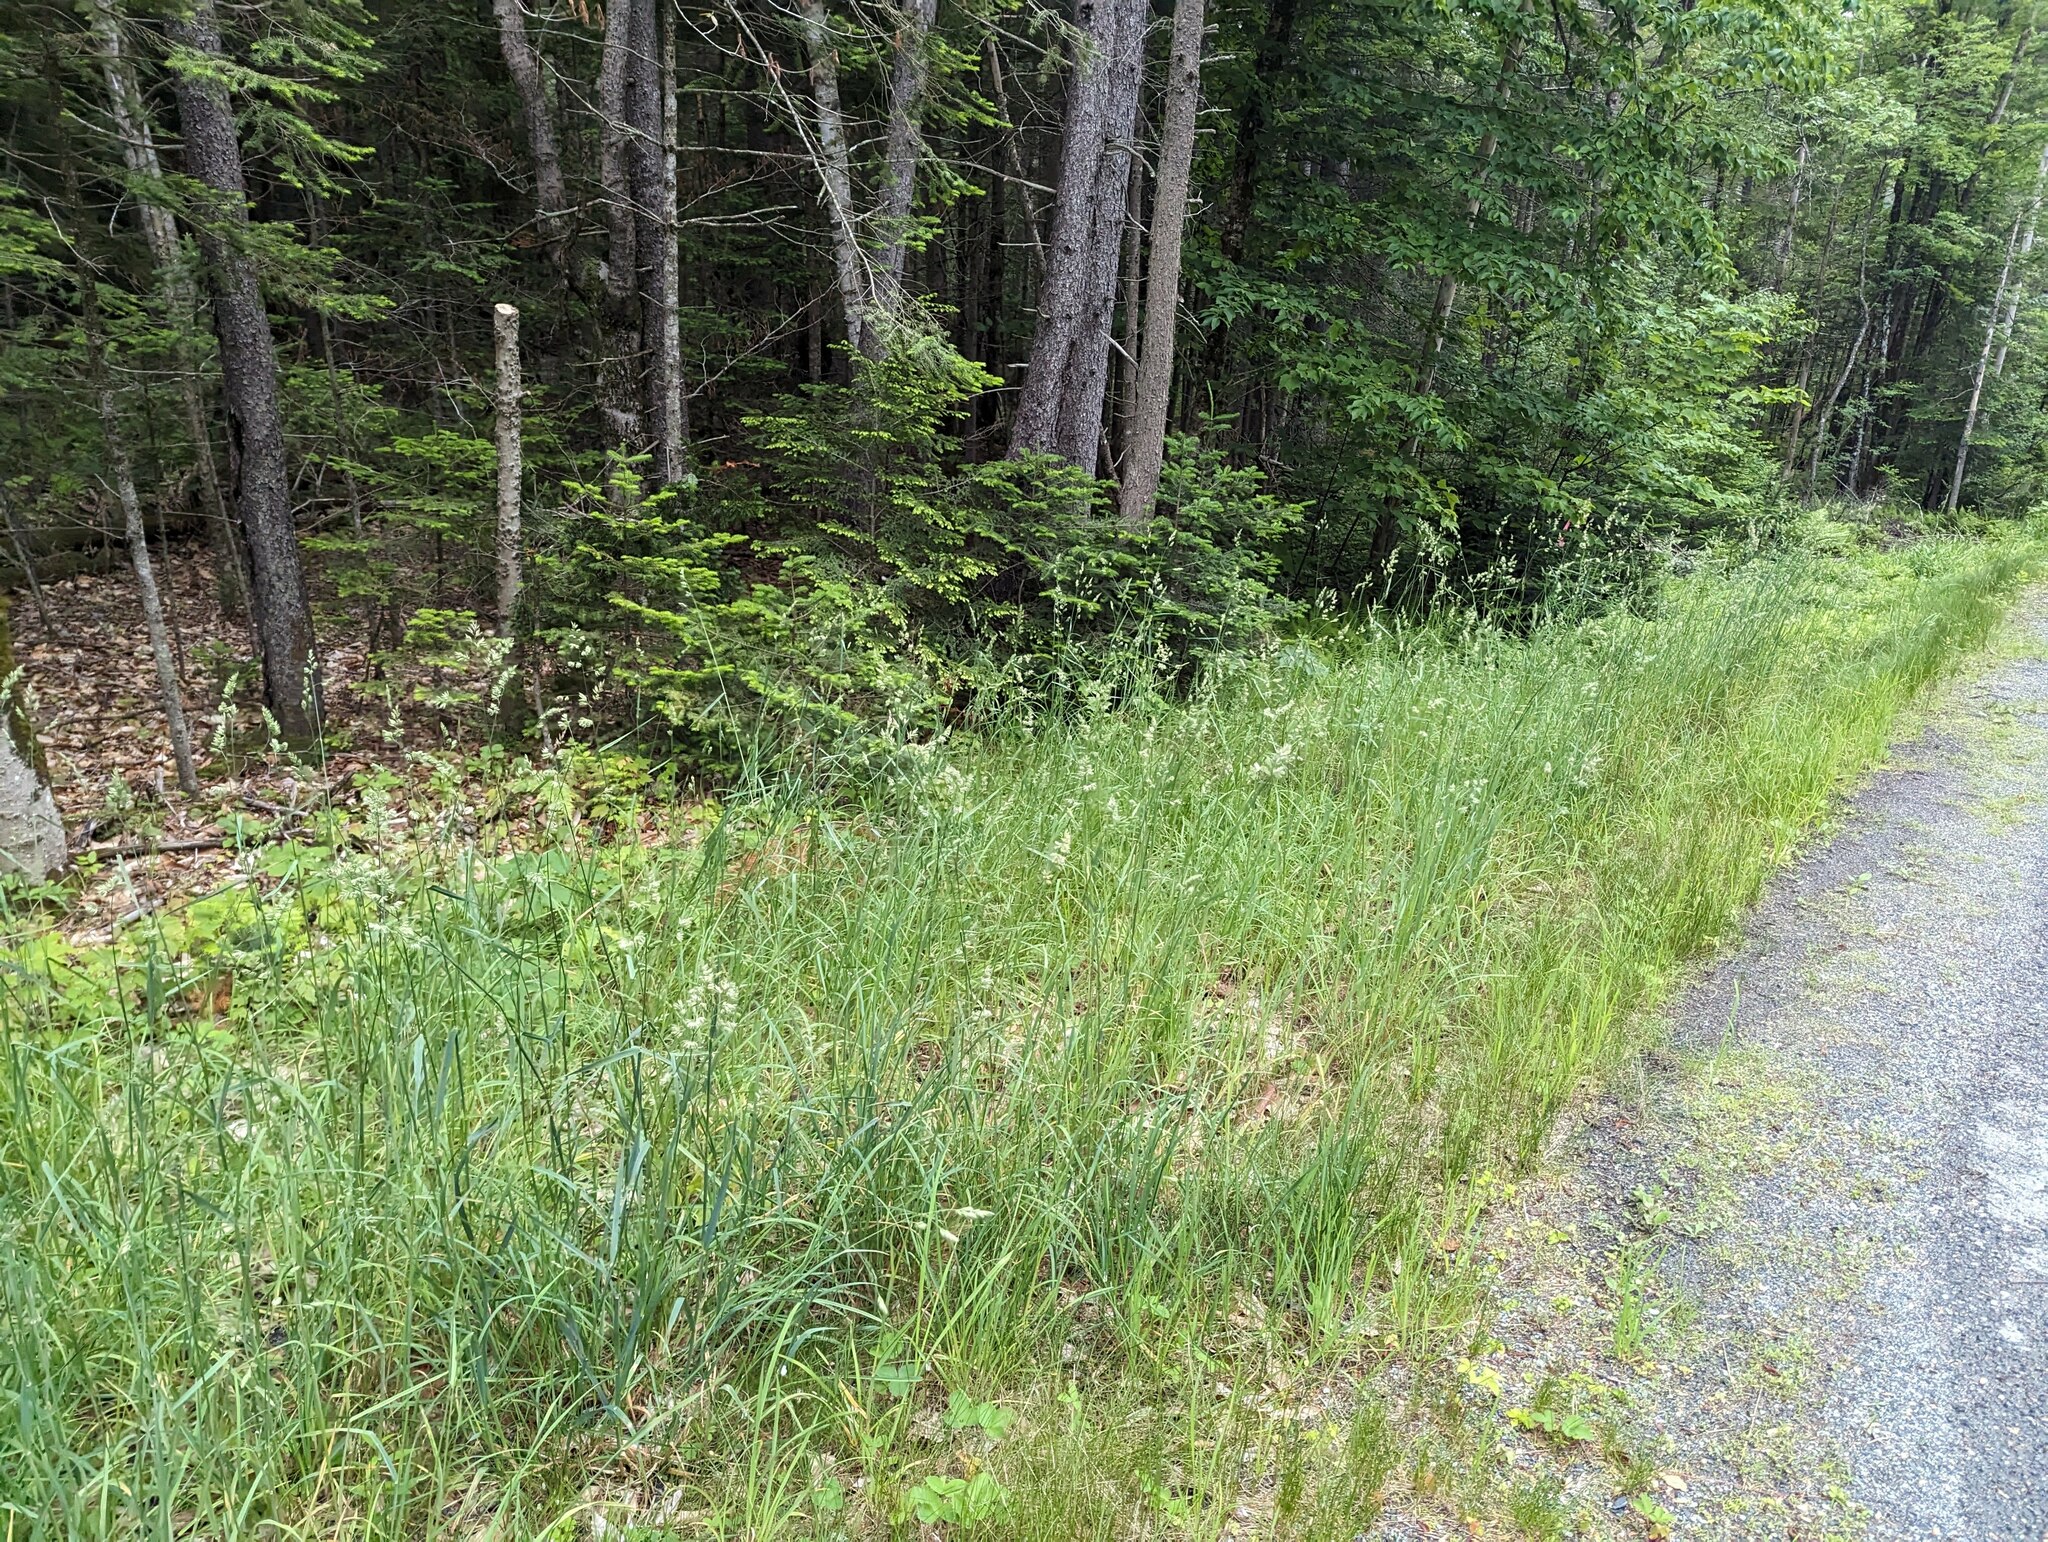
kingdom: Plantae
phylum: Tracheophyta
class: Liliopsida
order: Poales
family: Poaceae
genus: Dactylis
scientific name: Dactylis glomerata
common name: Orchardgrass
